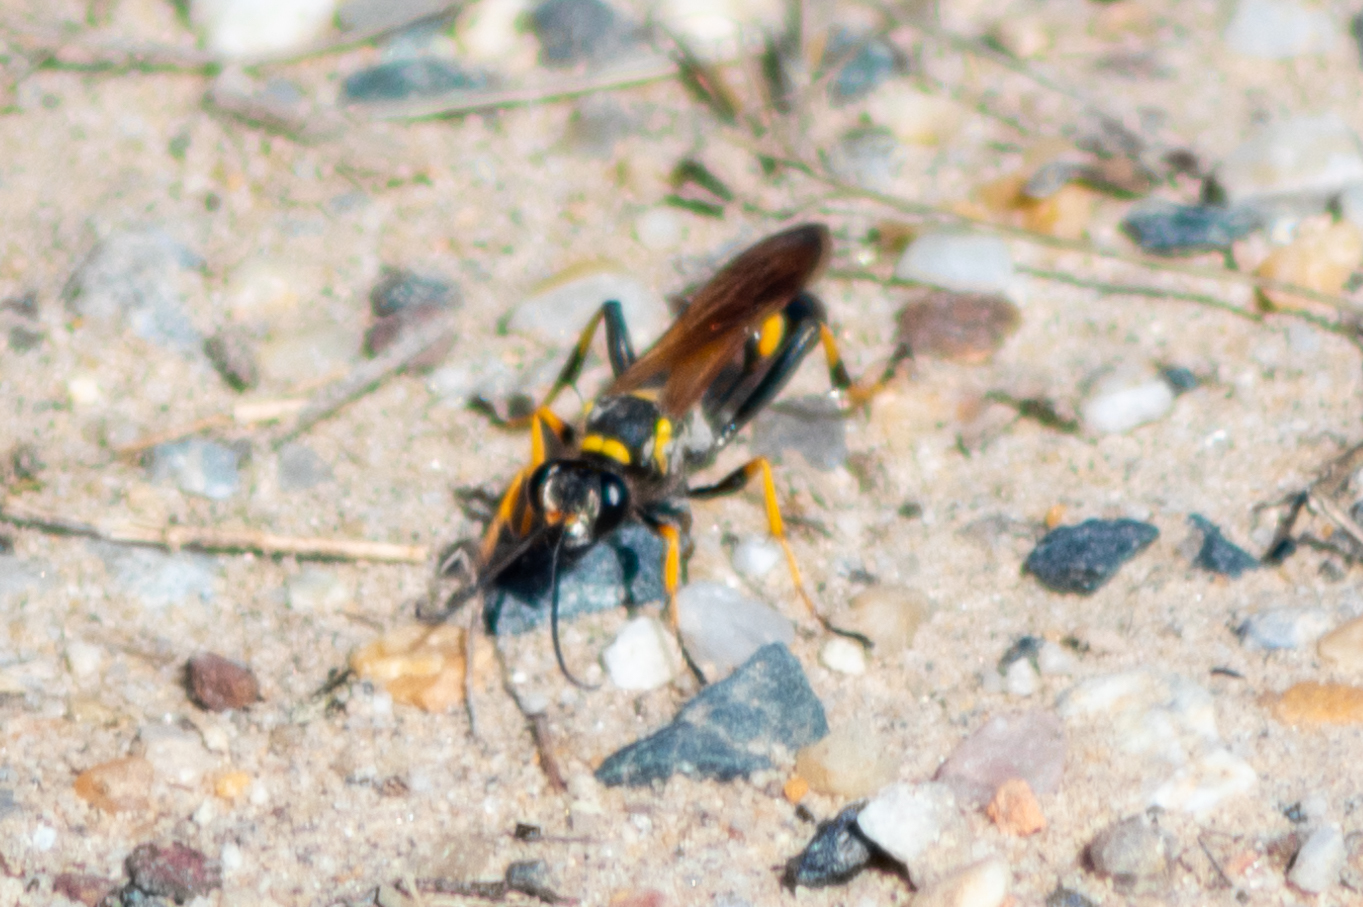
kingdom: Animalia
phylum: Arthropoda
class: Insecta
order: Hymenoptera
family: Sphecidae
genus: Sceliphron
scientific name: Sceliphron caementarium
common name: Mud dauber
